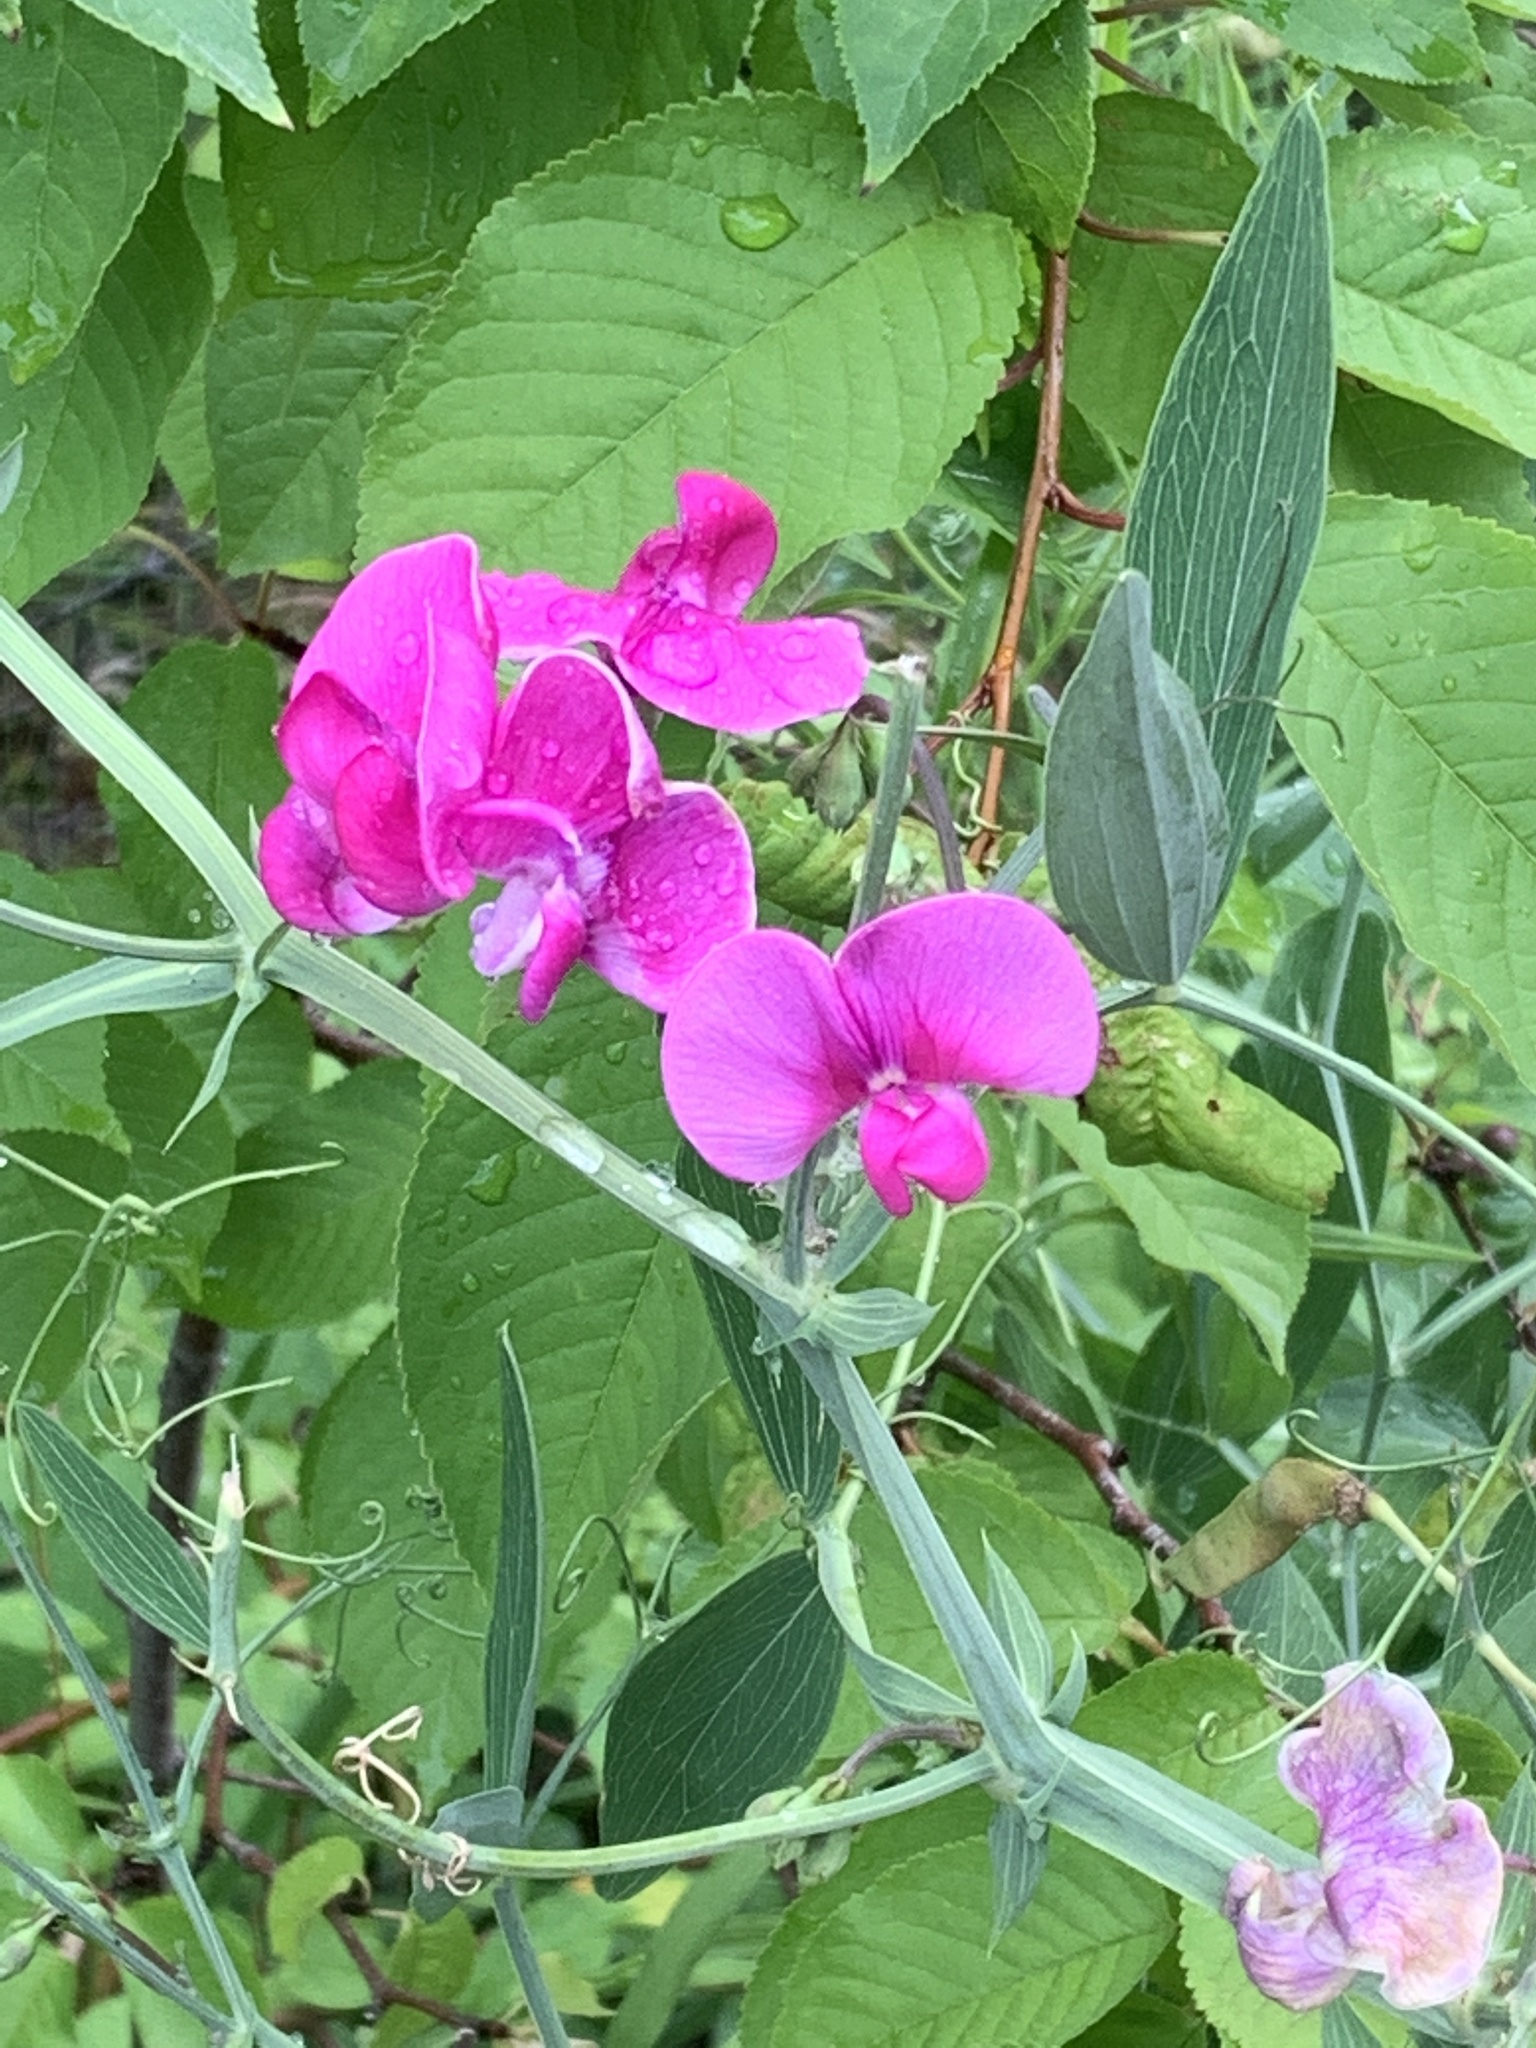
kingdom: Plantae
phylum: Tracheophyta
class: Magnoliopsida
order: Fabales
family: Fabaceae
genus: Lathyrus
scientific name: Lathyrus latifolius
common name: Perennial pea
